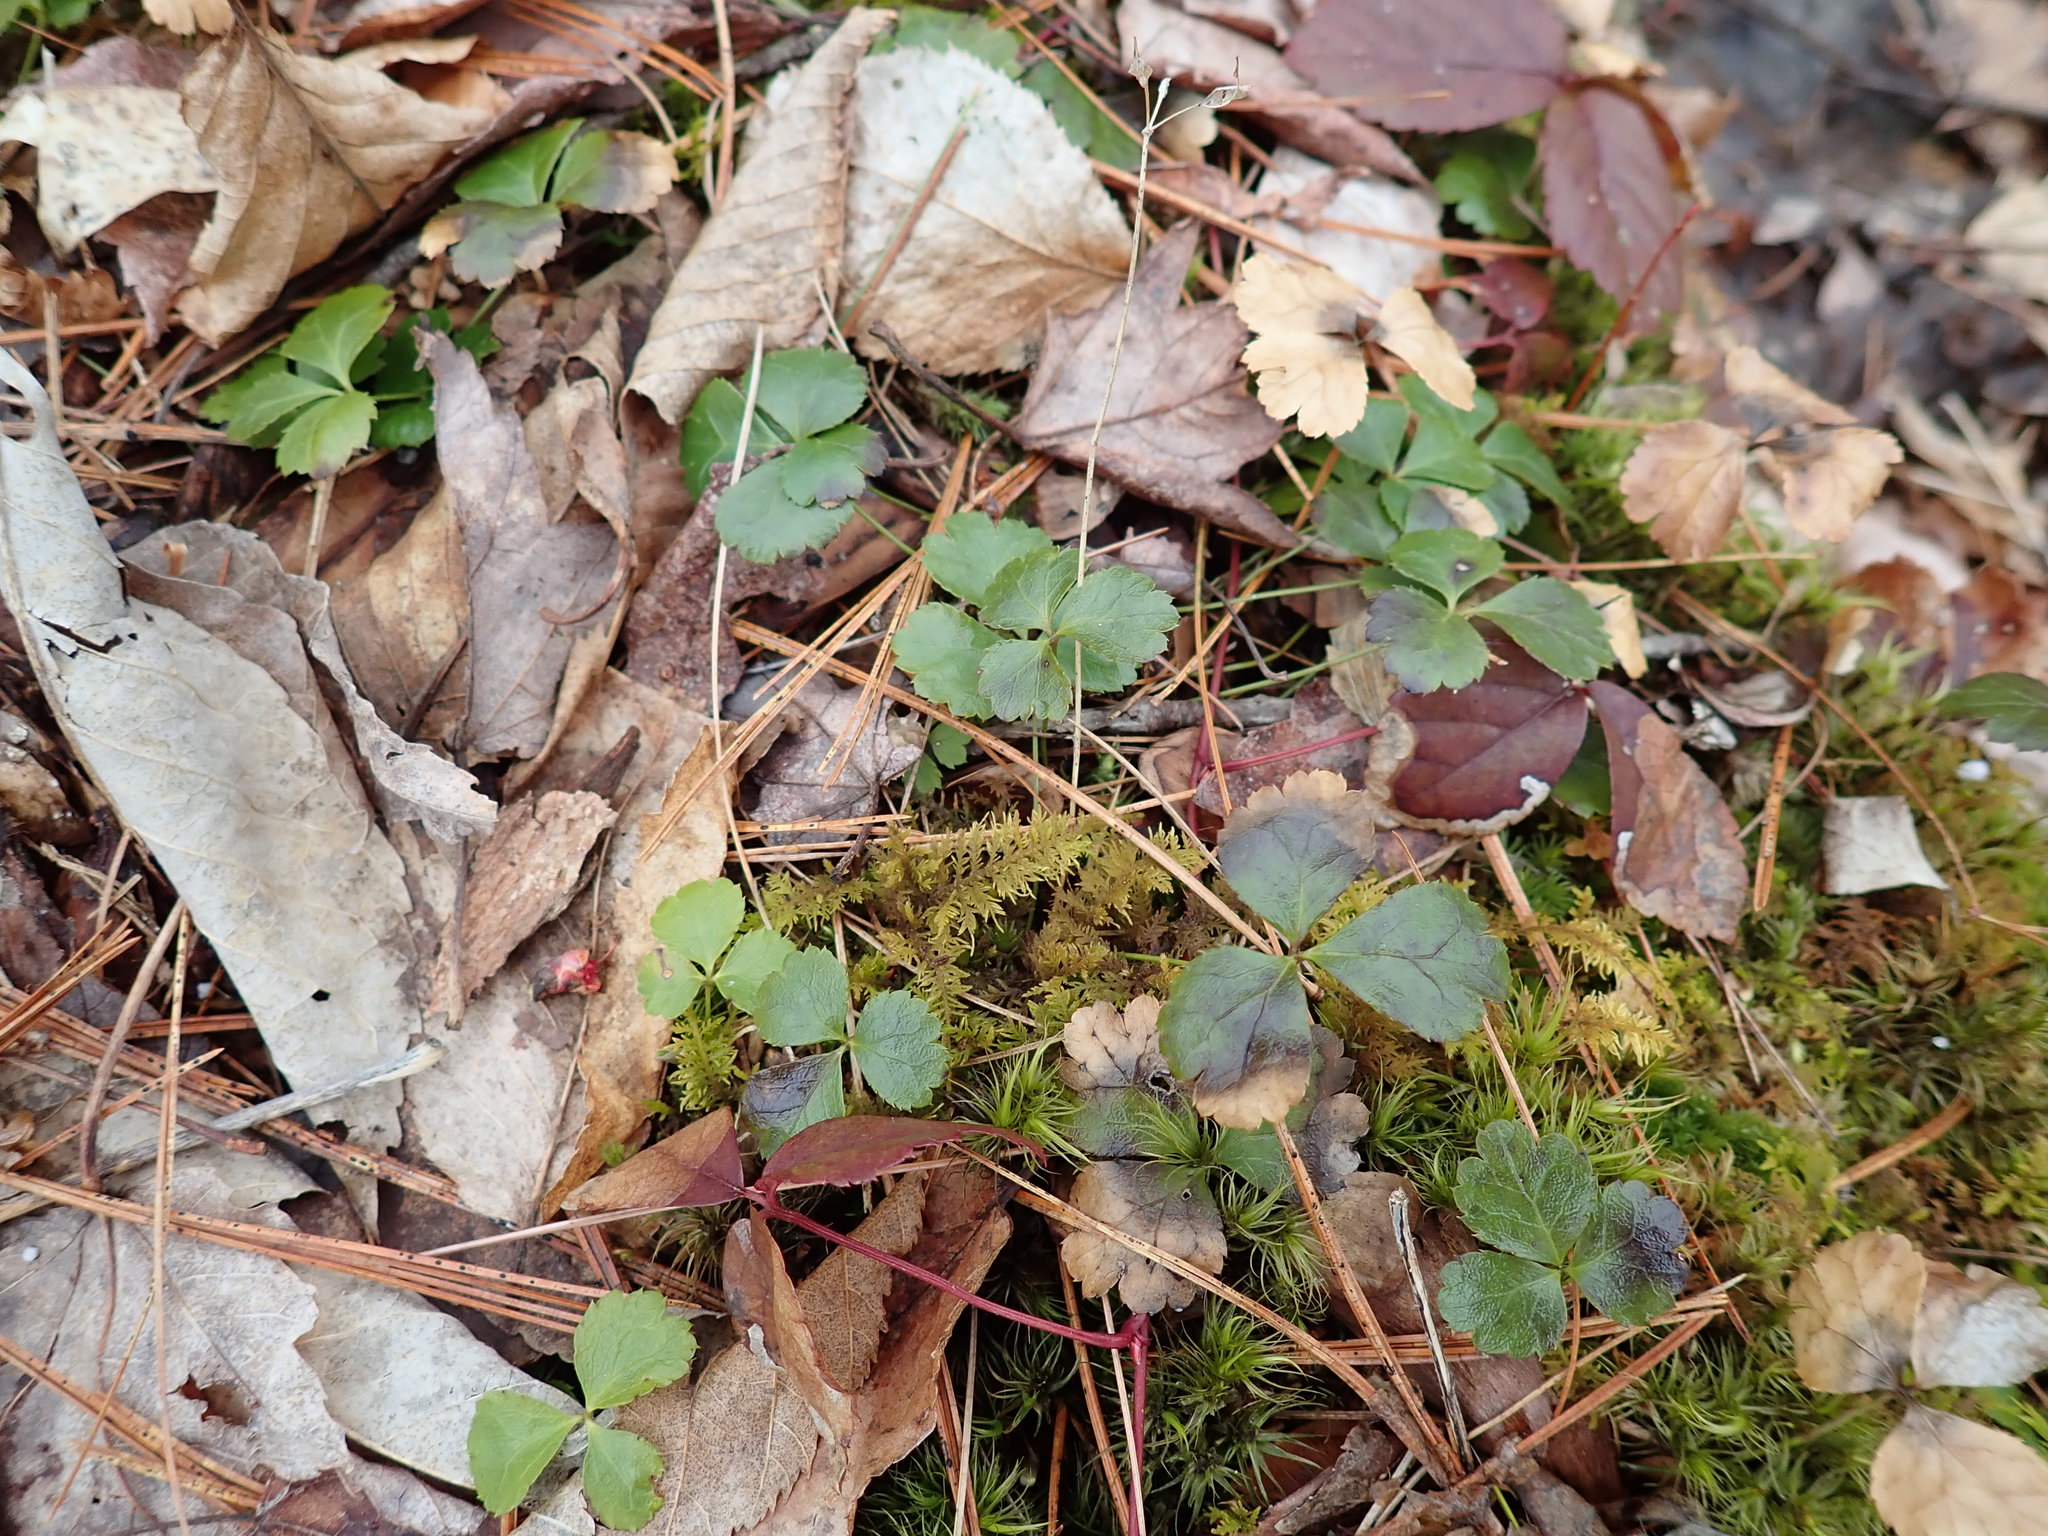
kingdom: Plantae
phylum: Tracheophyta
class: Magnoliopsida
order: Ranunculales
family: Ranunculaceae
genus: Coptis
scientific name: Coptis trifolia
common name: Canker-root
